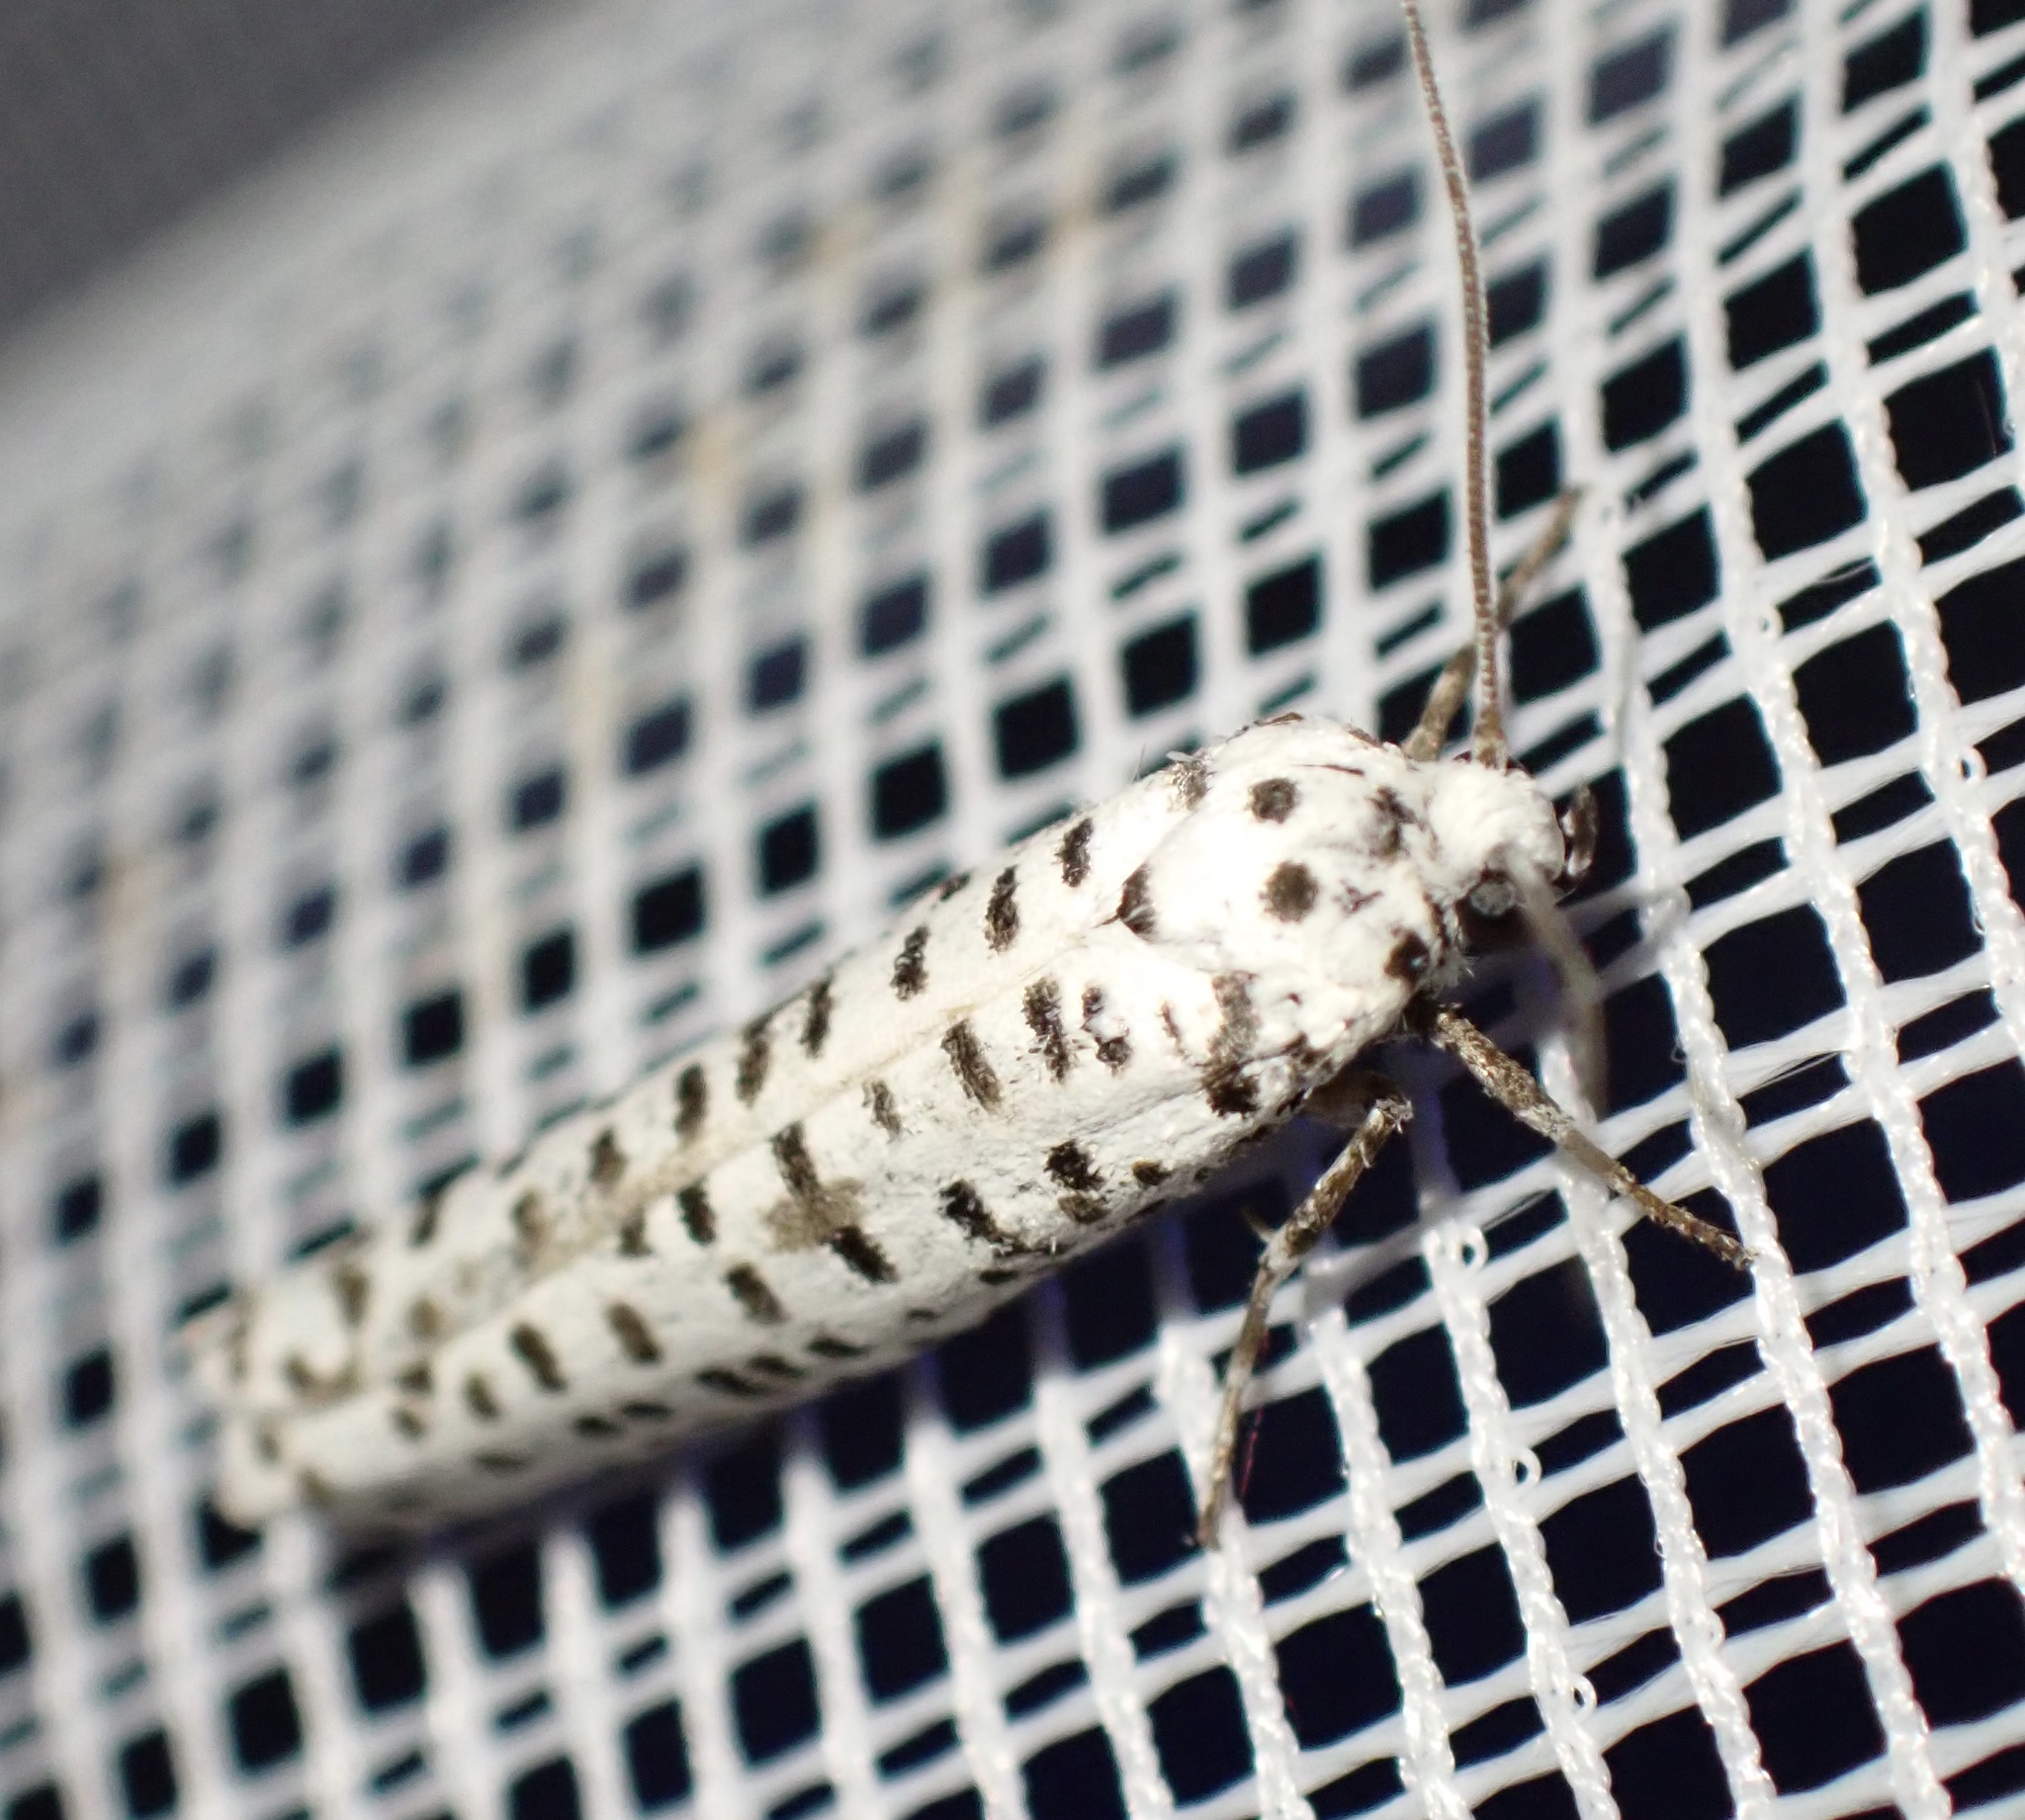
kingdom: Animalia
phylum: Arthropoda
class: Insecta
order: Lepidoptera
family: Yponomeutidae
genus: Yponomeuta
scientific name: Yponomeuta strigillata
